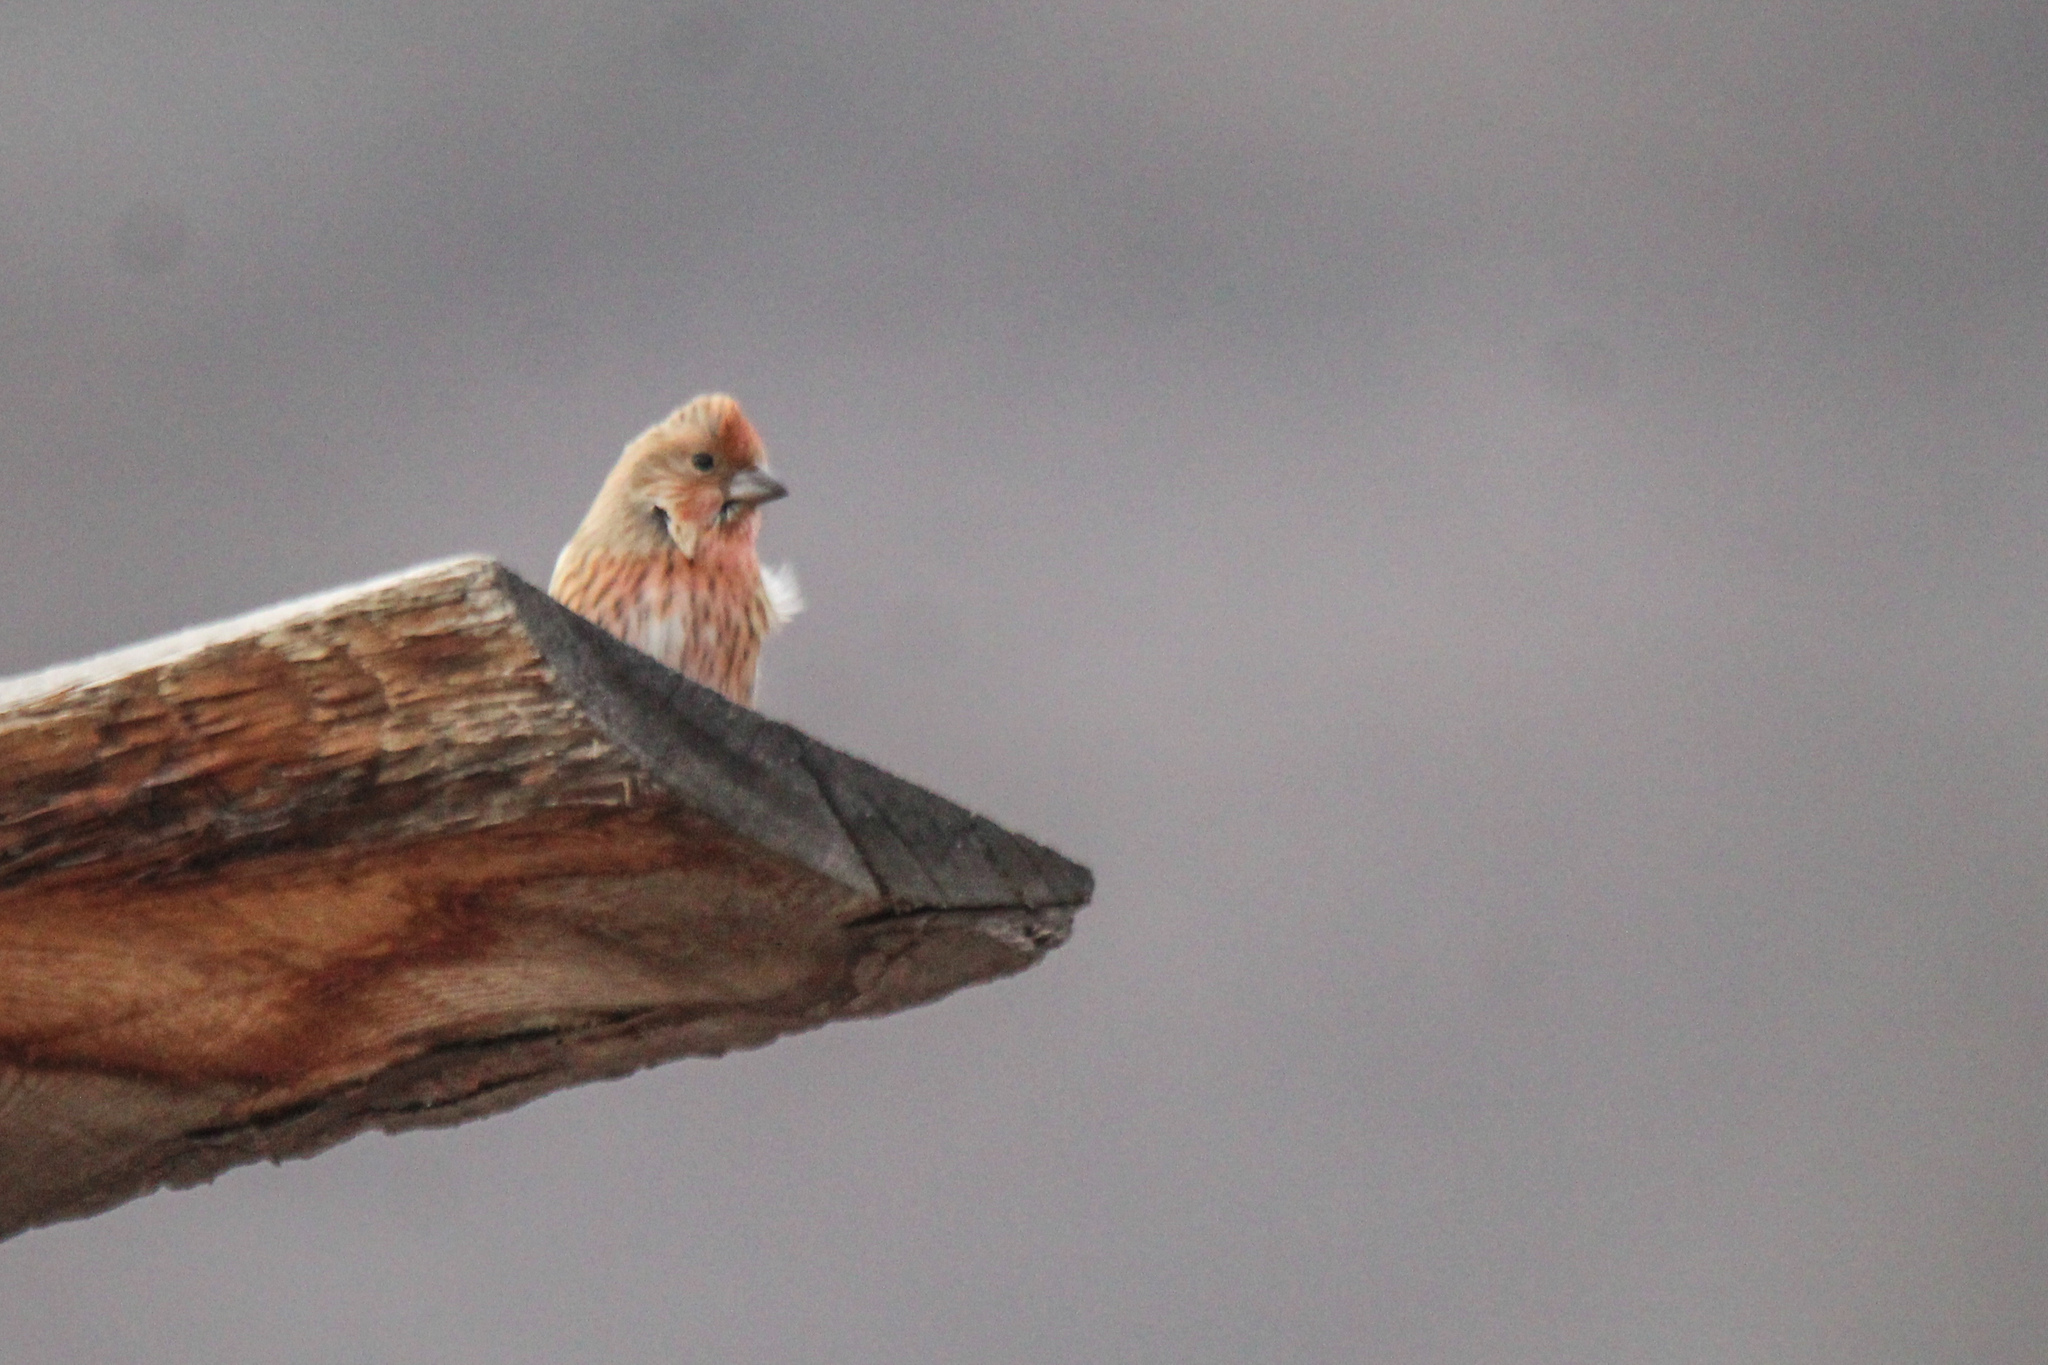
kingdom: Animalia
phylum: Chordata
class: Aves
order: Passeriformes
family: Fringillidae
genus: Carpodacus
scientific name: Carpodacus roseus
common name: Pallas's rosefinch
